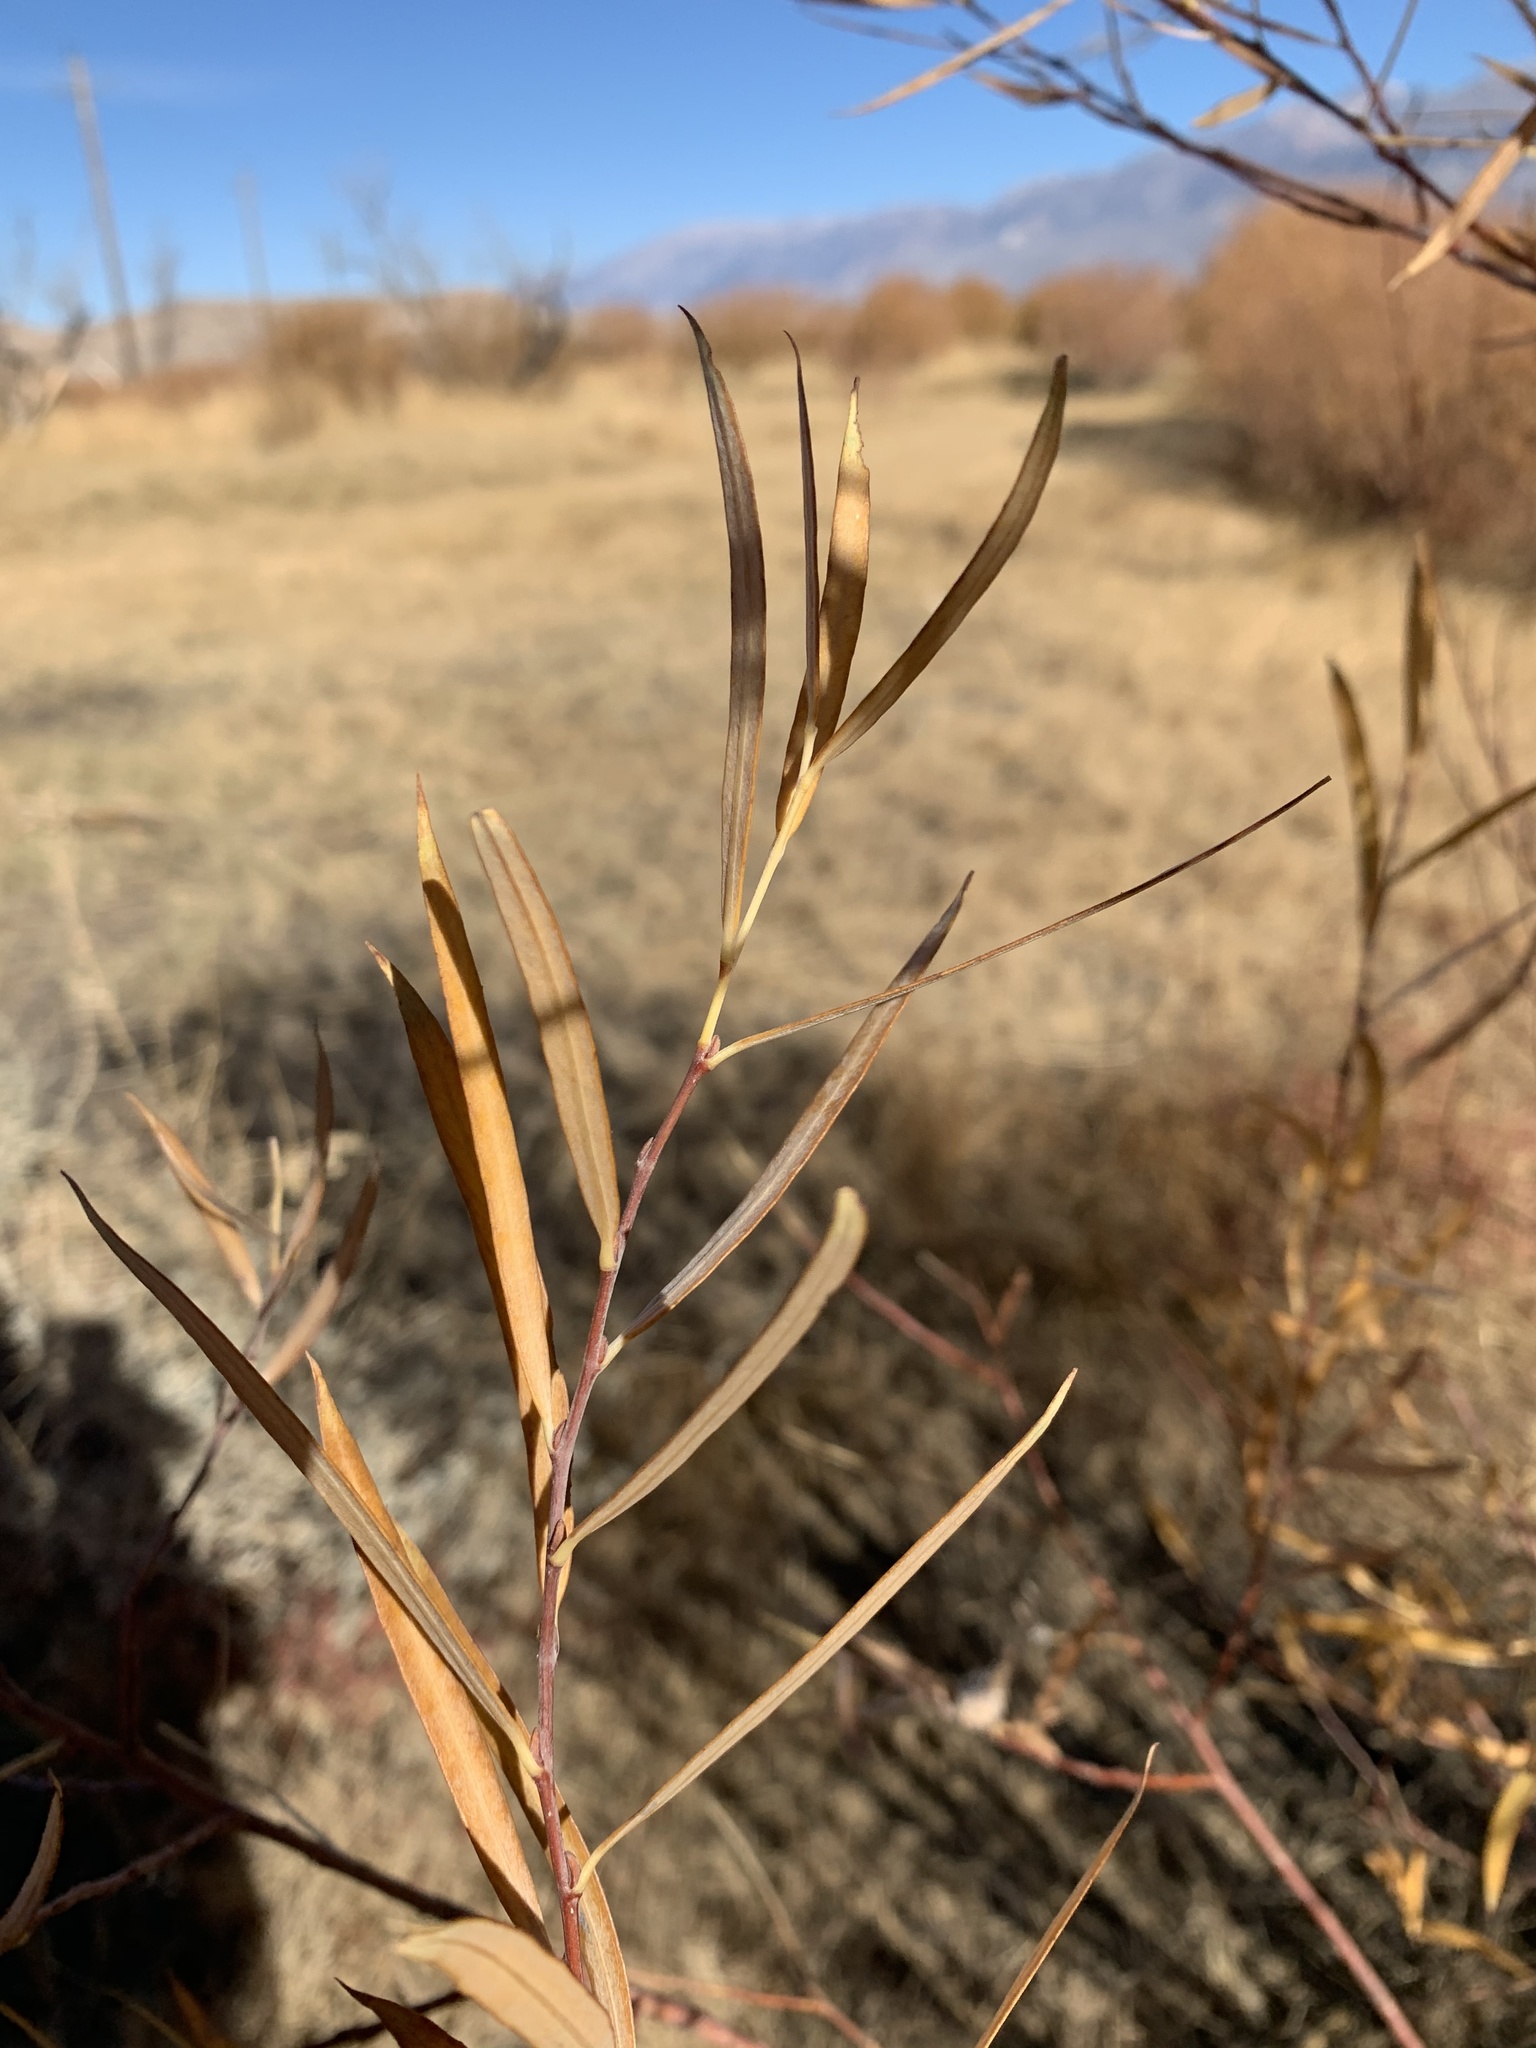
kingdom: Plantae
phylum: Tracheophyta
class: Magnoliopsida
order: Malpighiales
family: Salicaceae
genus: Salix
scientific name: Salix exigua
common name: Coyote willow
